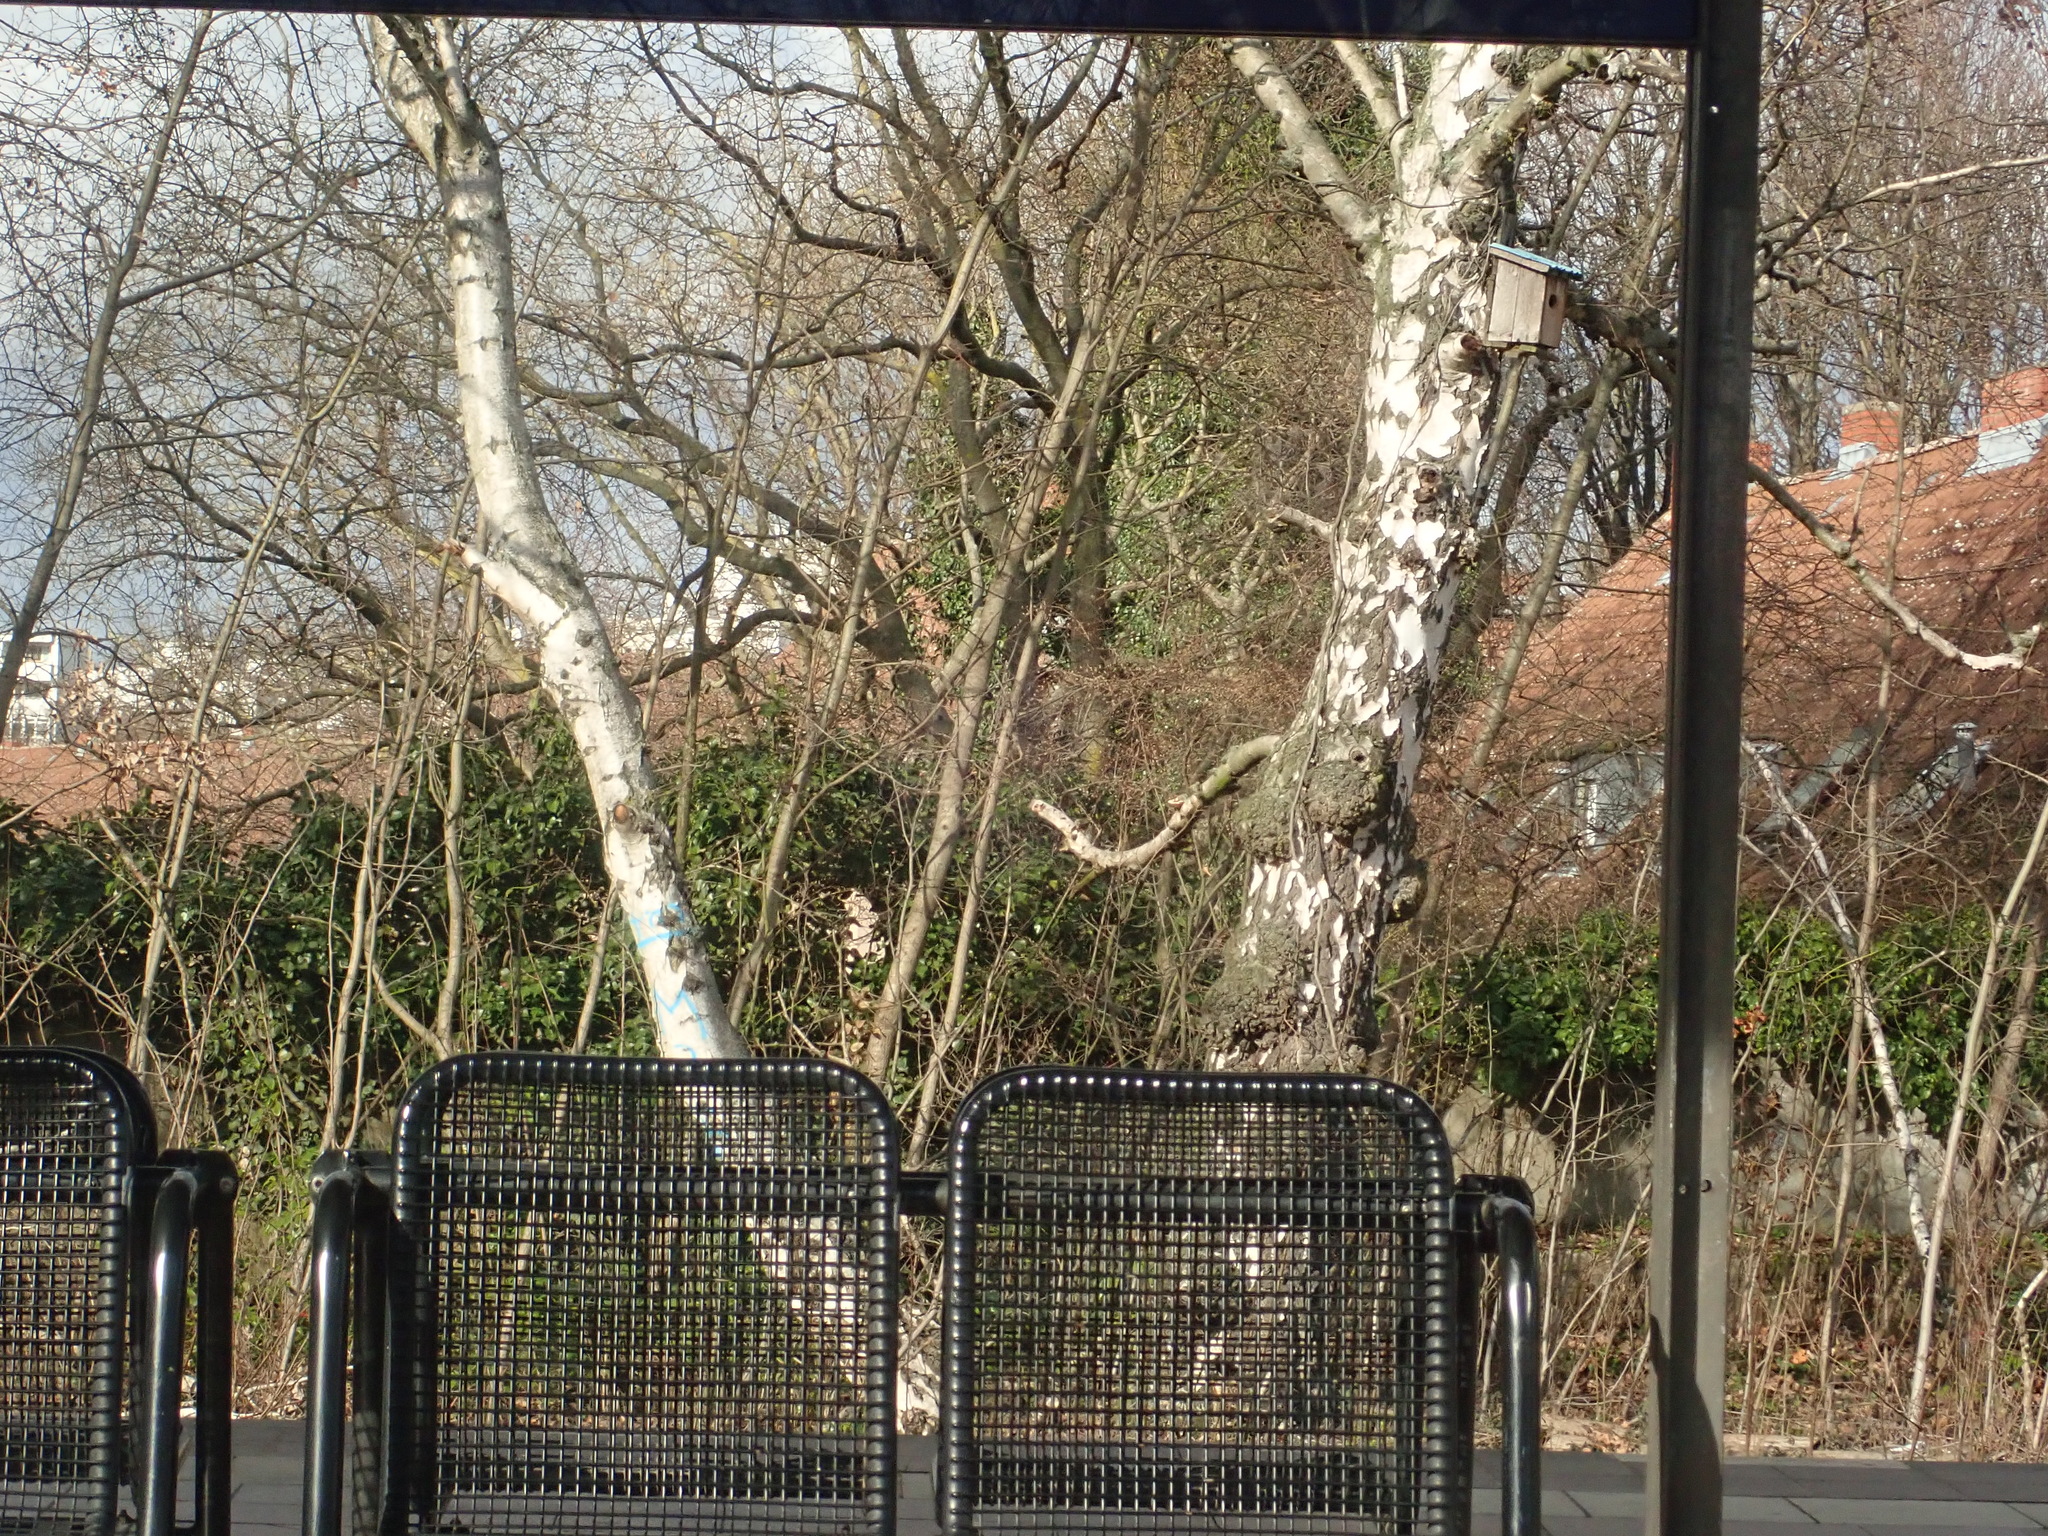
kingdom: Plantae
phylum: Tracheophyta
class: Magnoliopsida
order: Fagales
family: Betulaceae
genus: Betula
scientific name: Betula pendula
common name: Silver birch
